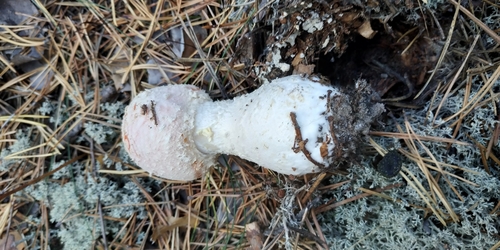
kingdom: Fungi
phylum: Basidiomycota
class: Agaricomycetes
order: Agaricales
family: Amanitaceae
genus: Amanita
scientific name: Amanita muscaria
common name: Fly agaric
